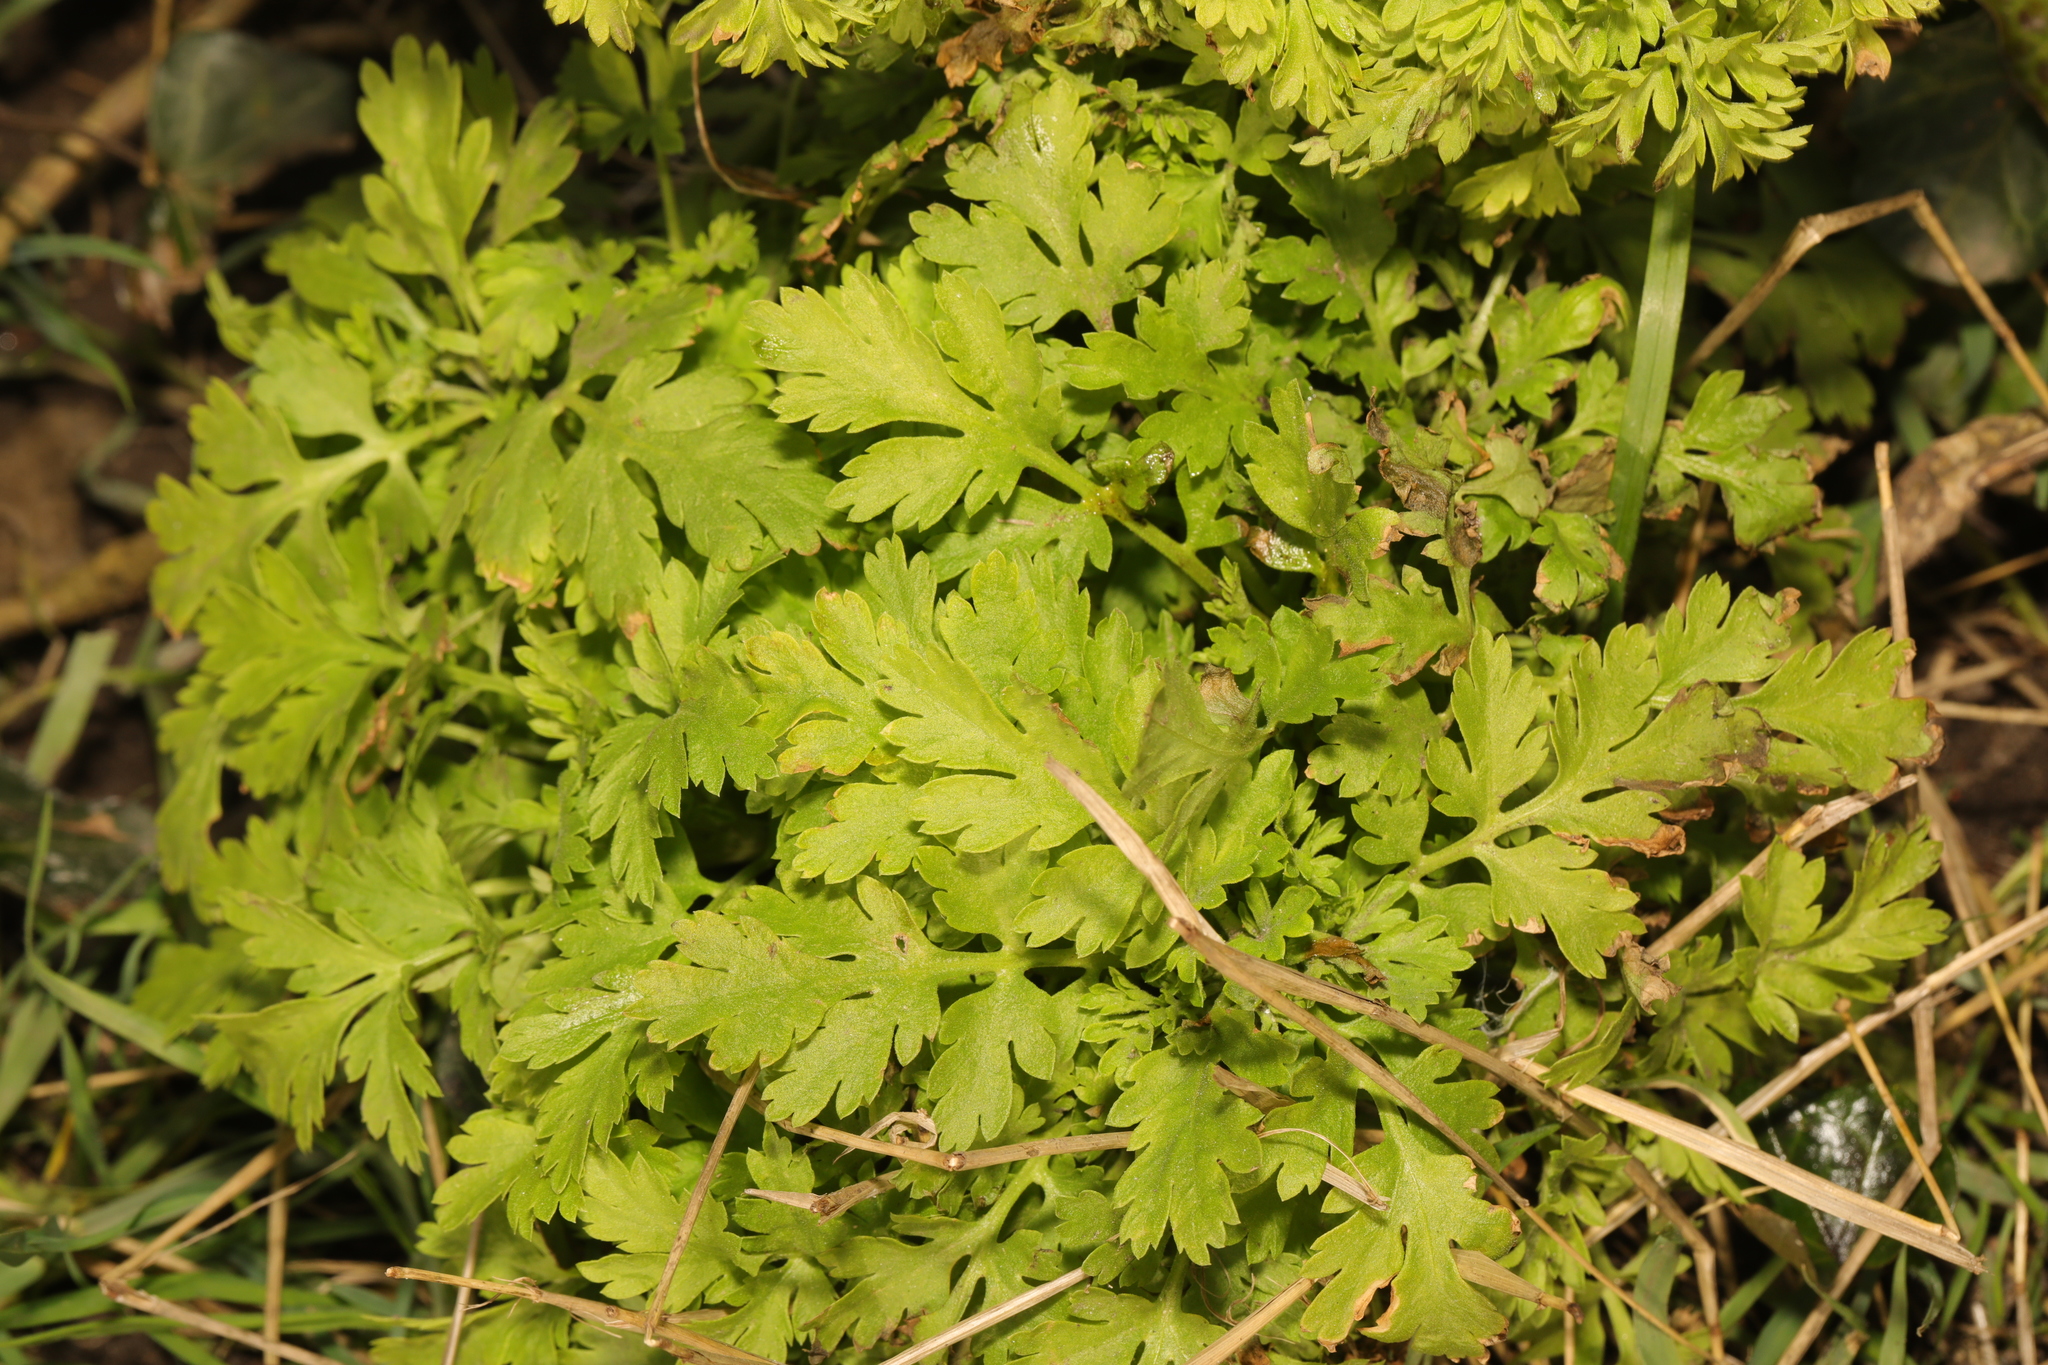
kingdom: Plantae
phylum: Tracheophyta
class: Magnoliopsida
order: Asterales
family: Asteraceae
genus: Tanacetum
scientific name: Tanacetum parthenium
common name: Feverfew
